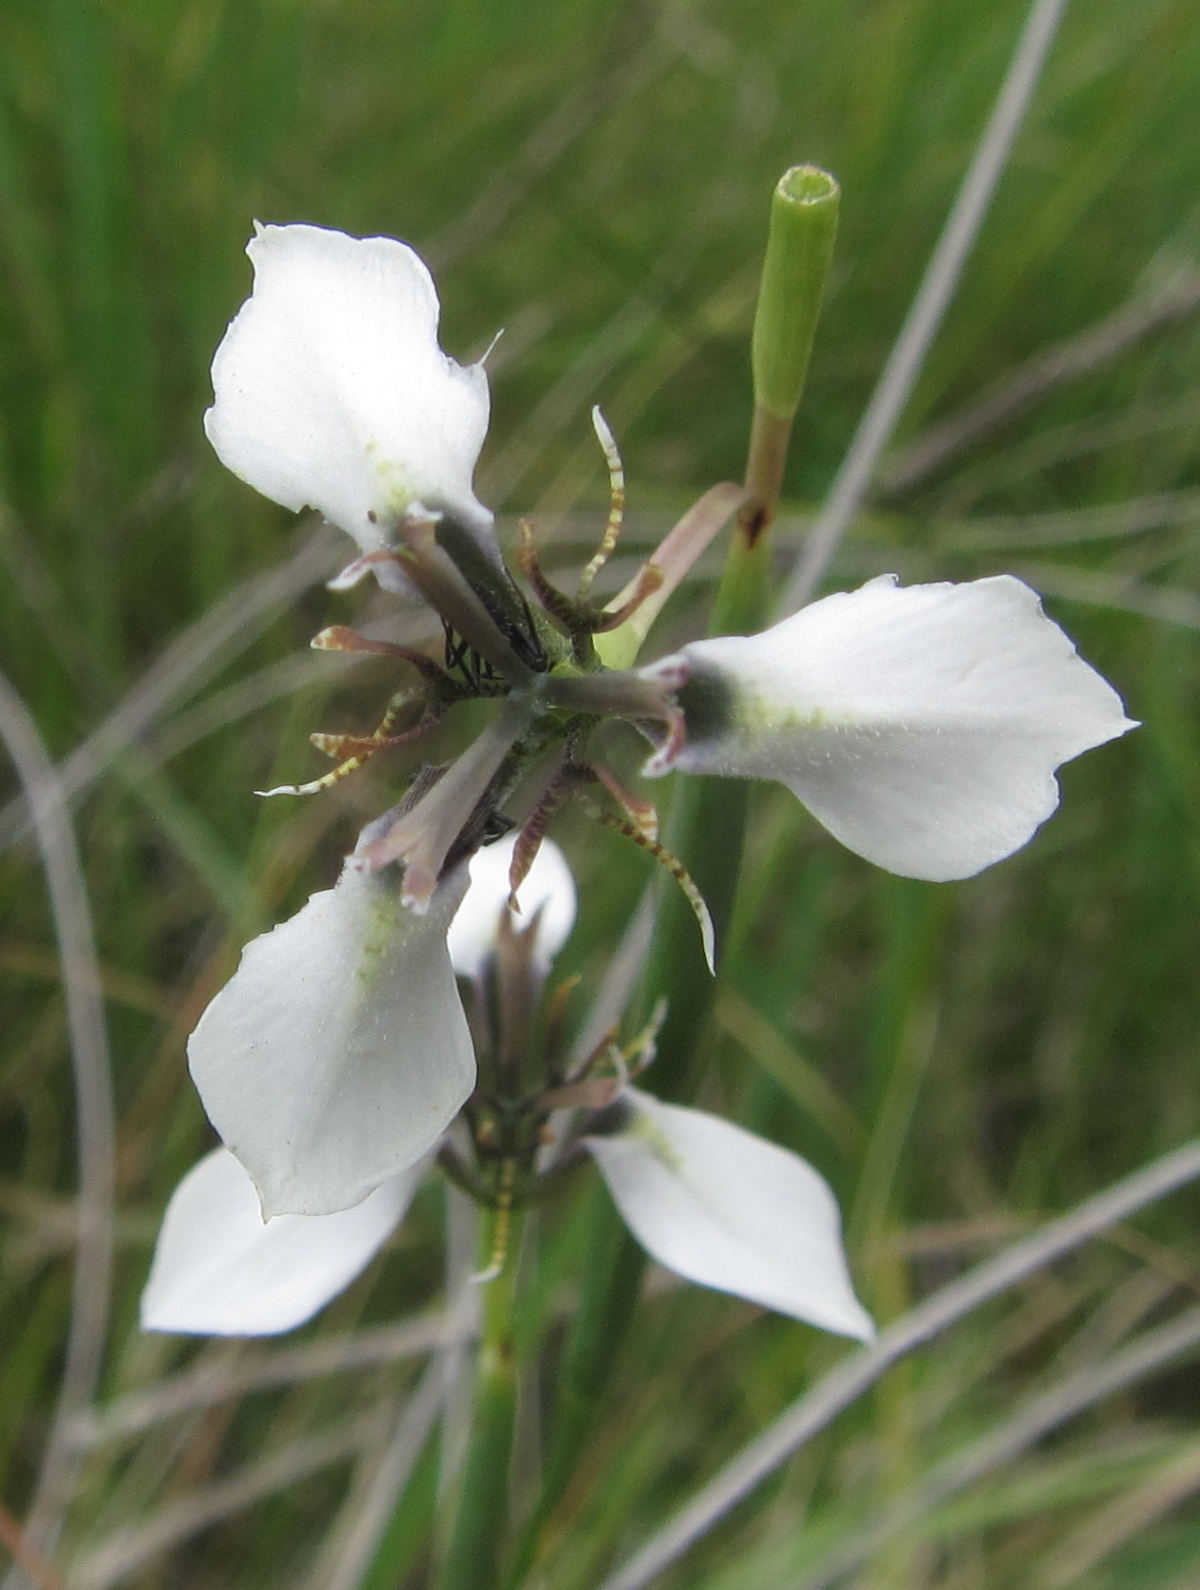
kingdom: Plantae
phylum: Tracheophyta
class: Liliopsida
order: Asparagales
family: Iridaceae
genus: Moraea
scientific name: Moraea brevistyla
